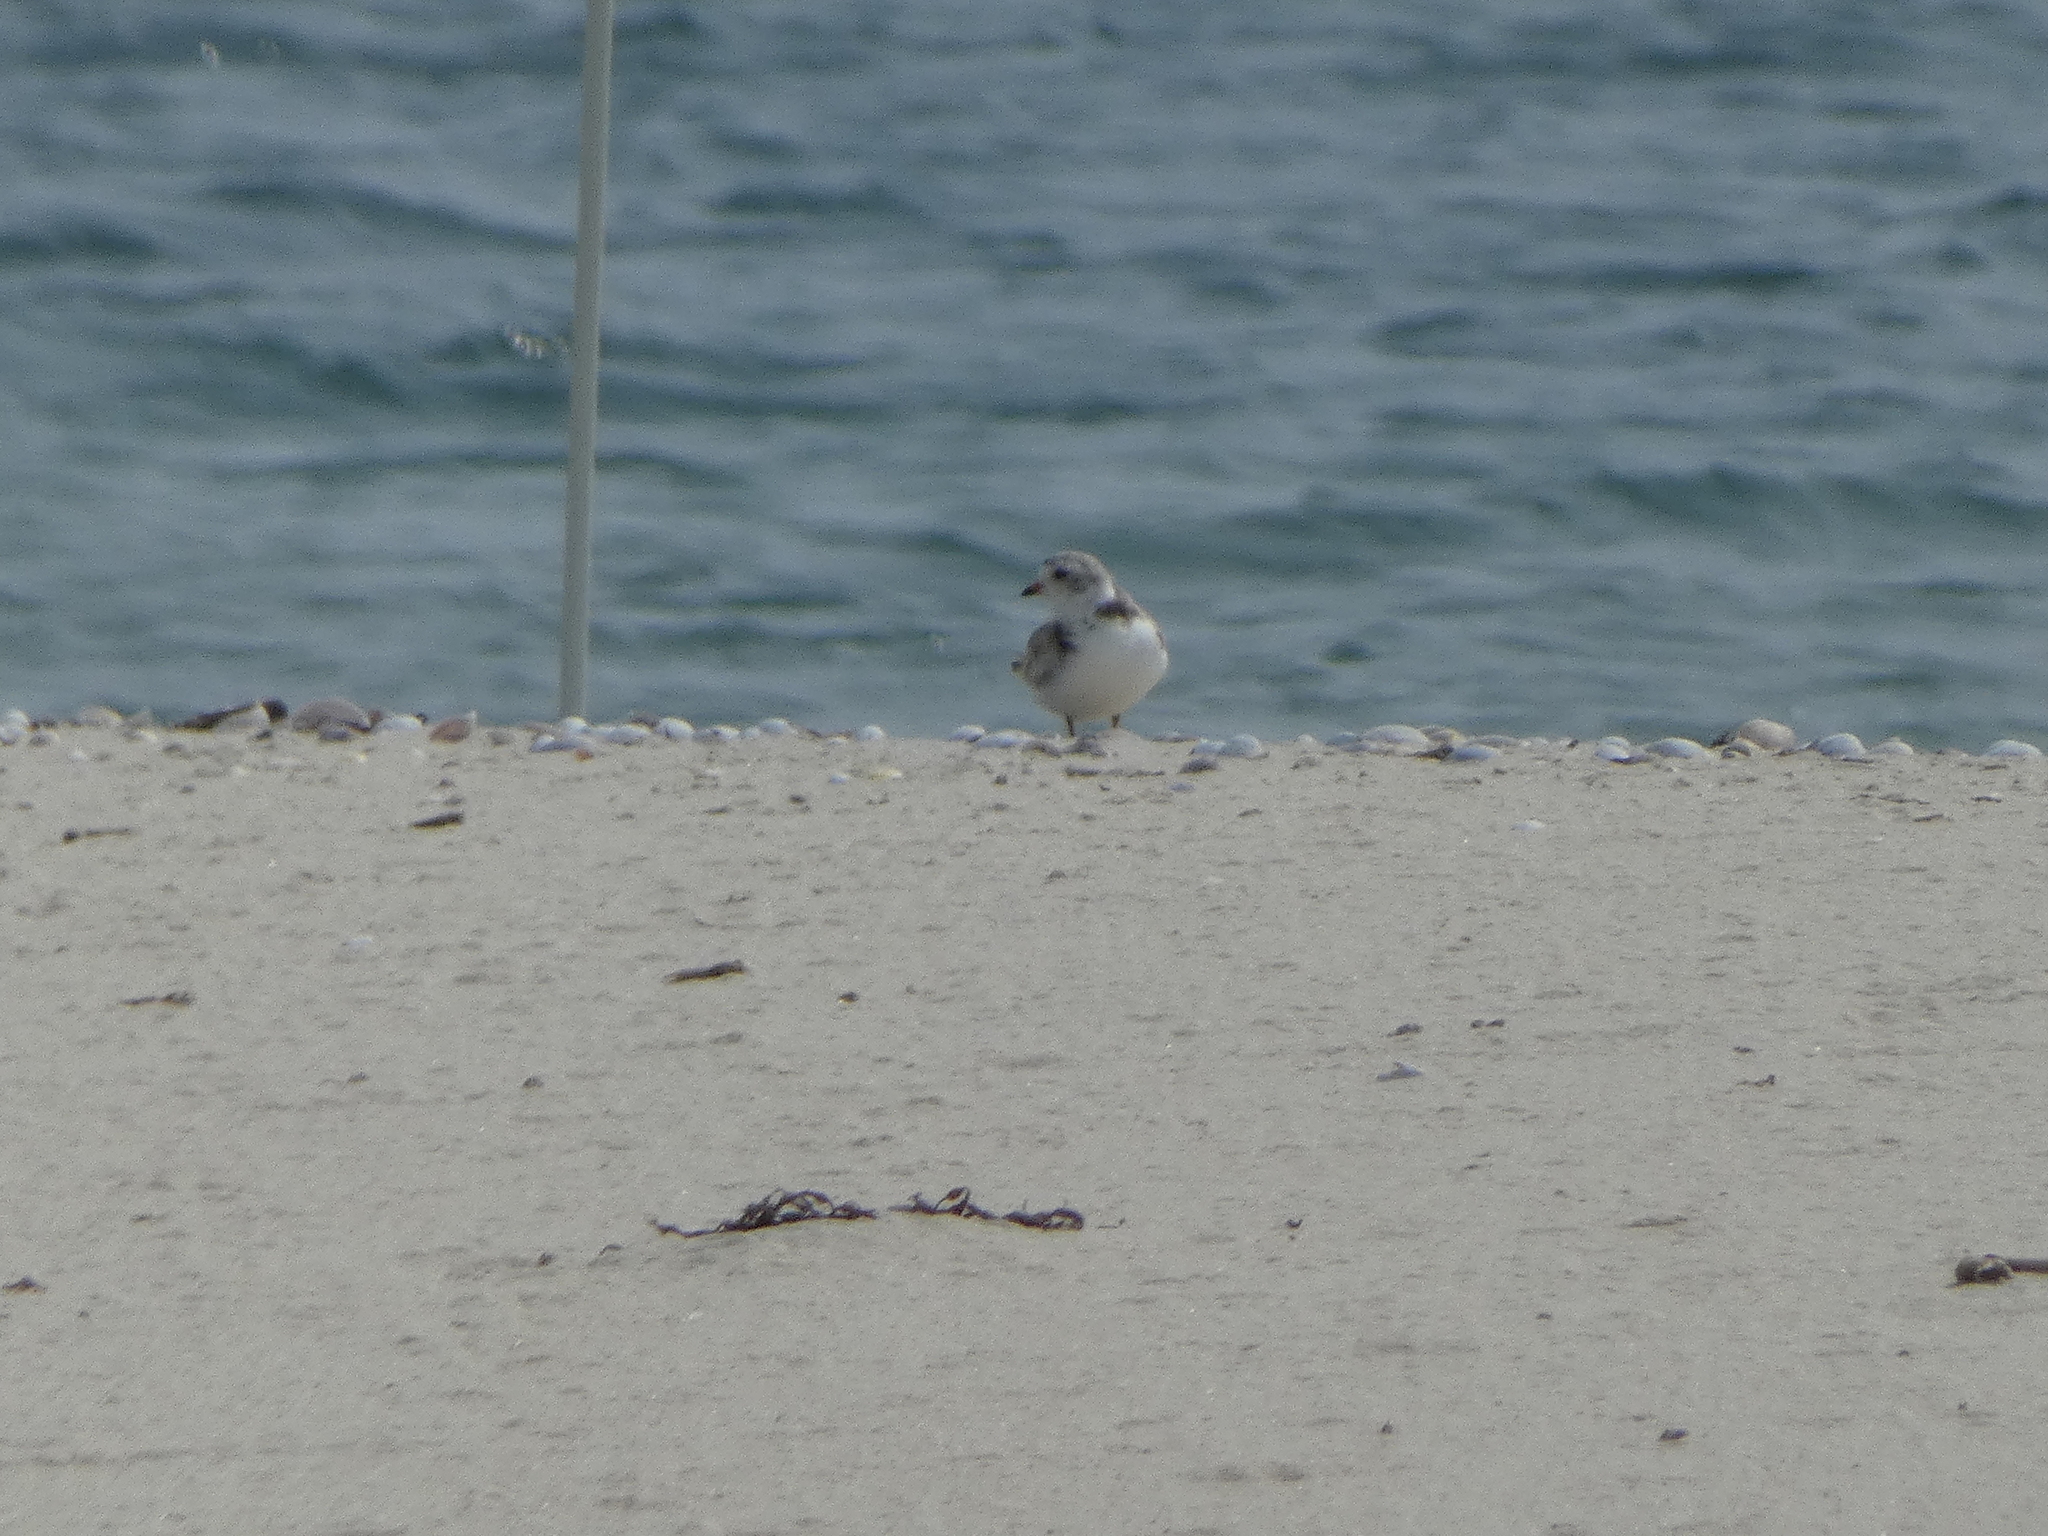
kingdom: Animalia
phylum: Chordata
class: Aves
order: Charadriiformes
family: Charadriidae
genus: Charadrius
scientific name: Charadrius melodus
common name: Piping plover
